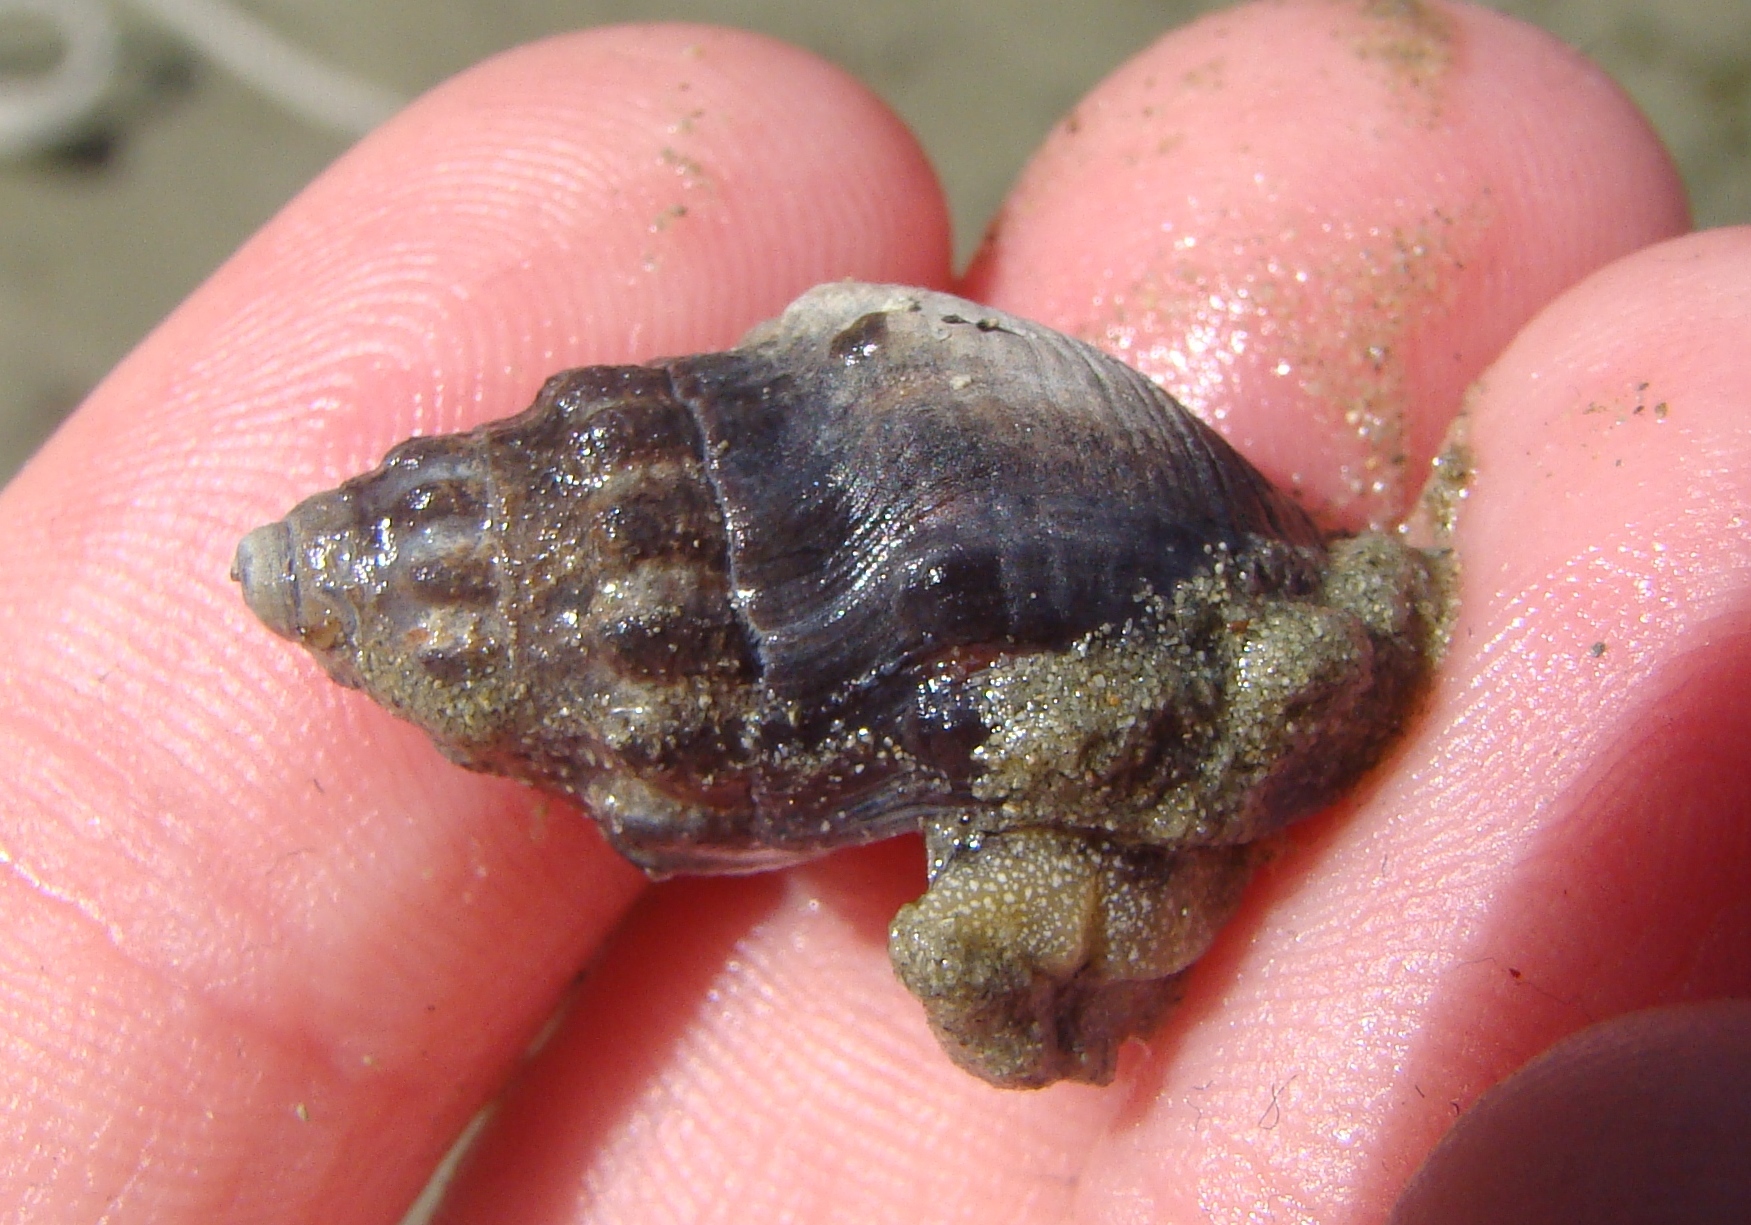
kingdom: Animalia
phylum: Mollusca
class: Gastropoda
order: Neogastropoda
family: Cominellidae
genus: Cominella
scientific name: Cominella glandiformis
